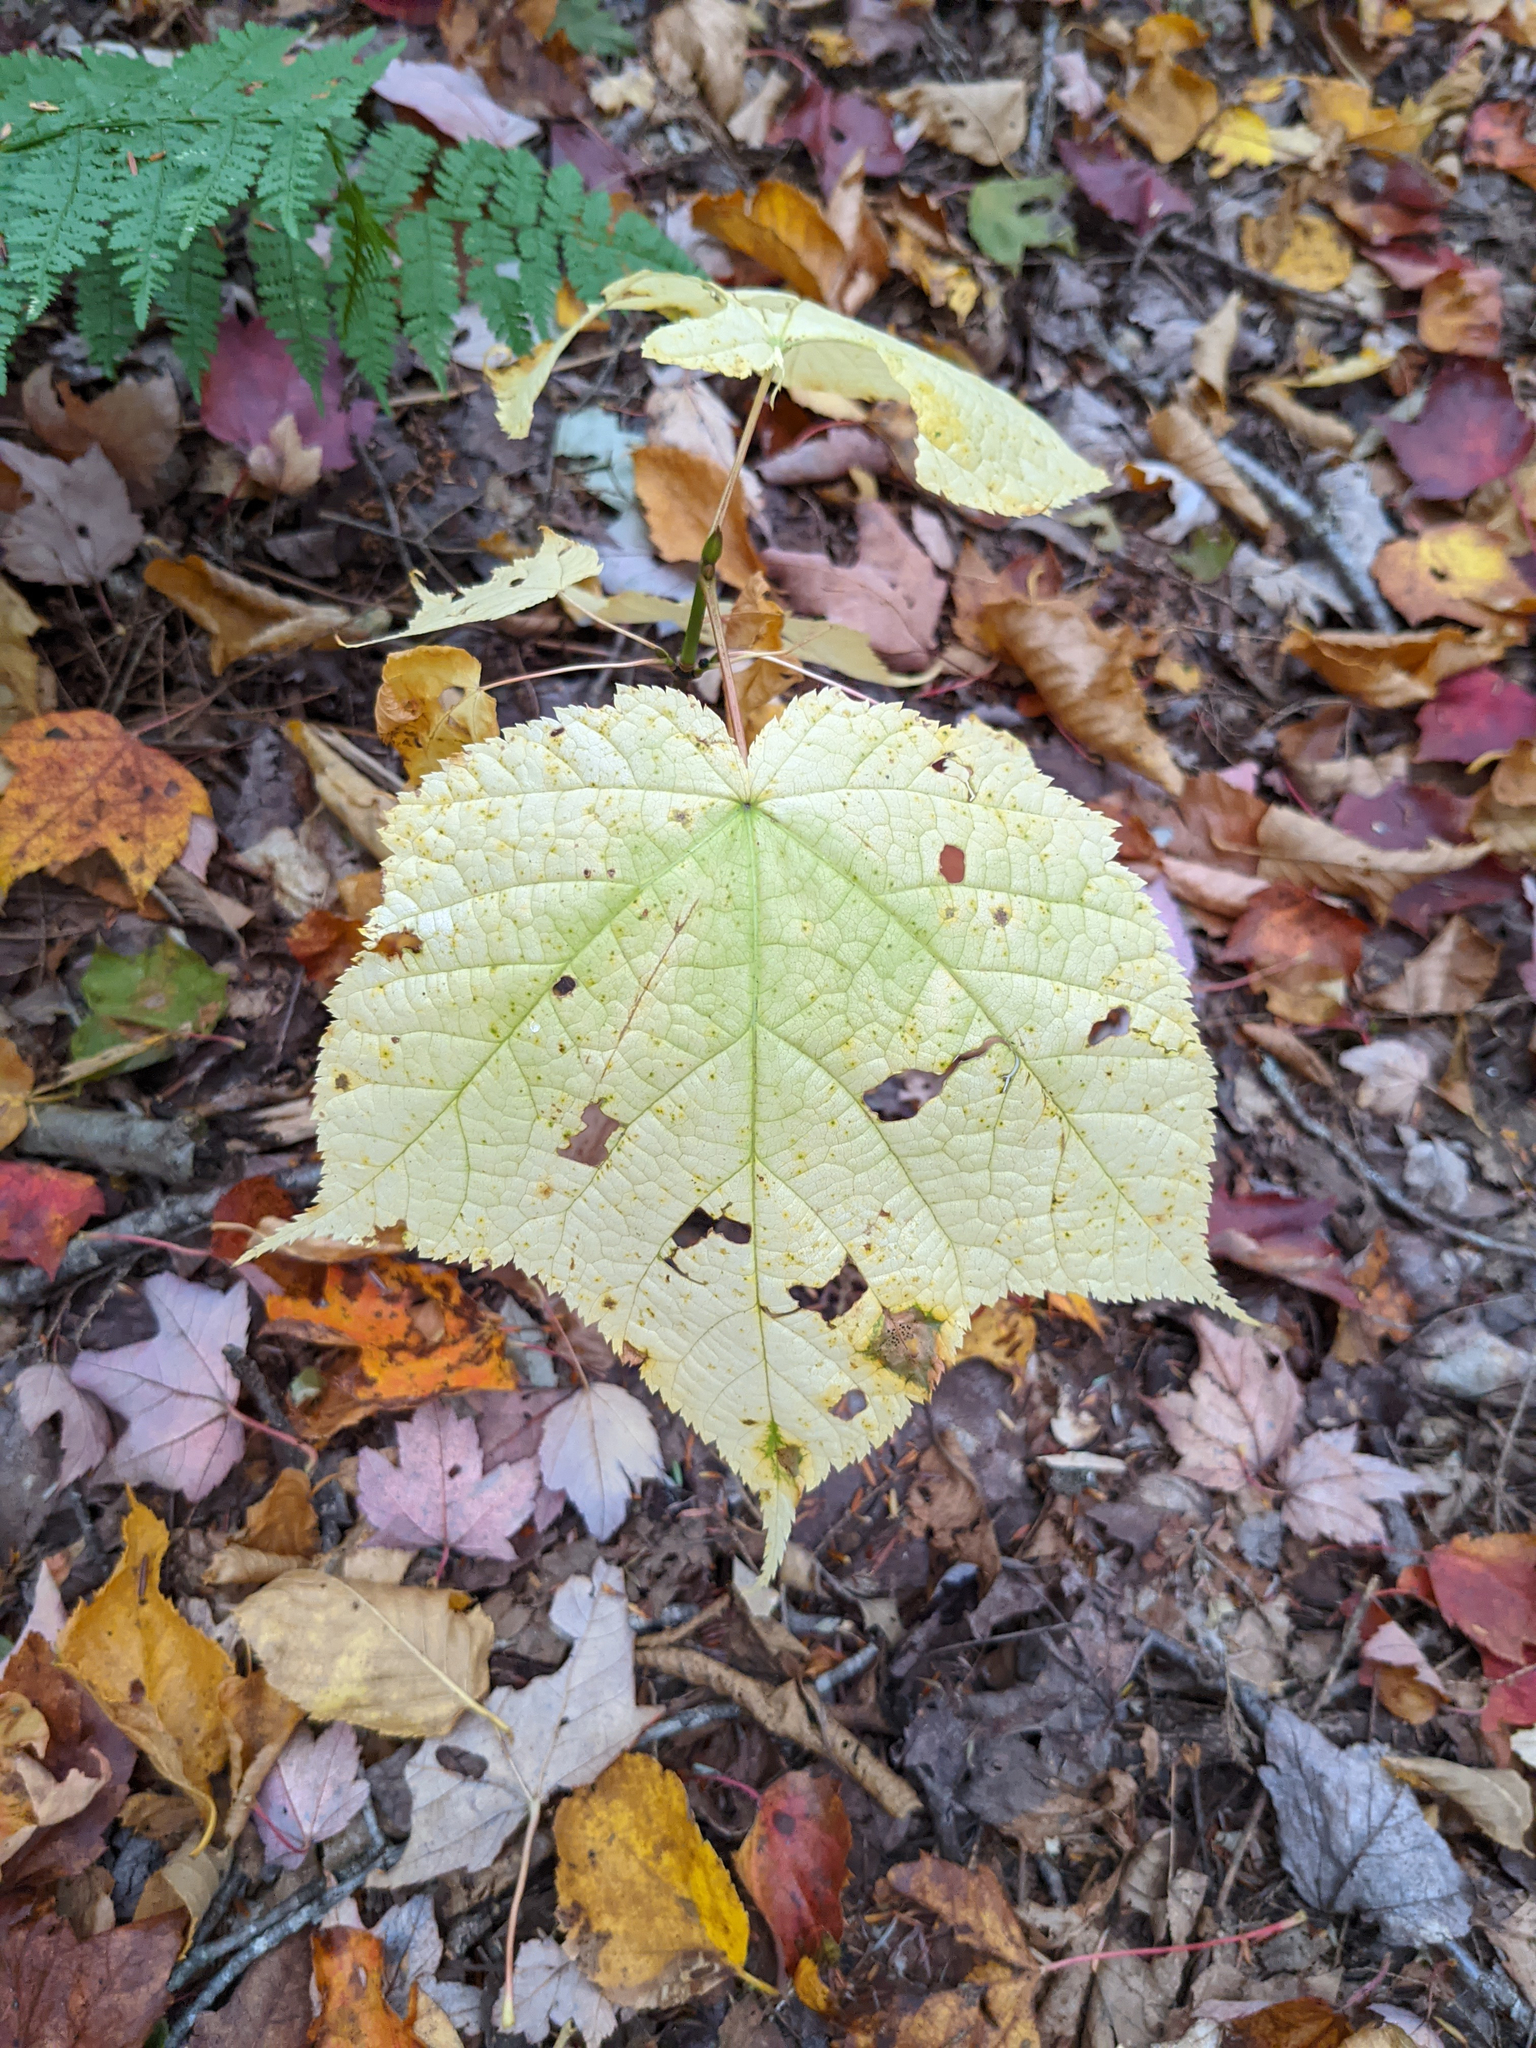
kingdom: Plantae
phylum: Tracheophyta
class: Magnoliopsida
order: Sapindales
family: Sapindaceae
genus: Acer
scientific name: Acer pensylvanicum
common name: Moosewood
